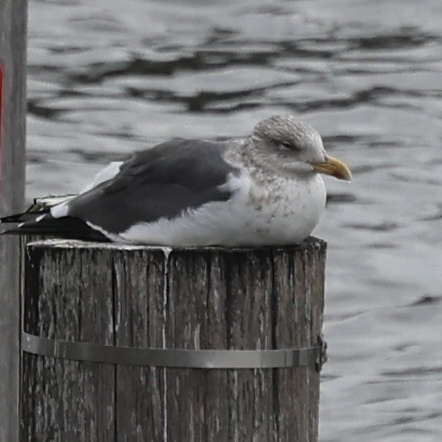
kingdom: Animalia
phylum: Chordata
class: Aves
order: Charadriiformes
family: Laridae
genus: Larus
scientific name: Larus fuscus
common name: Lesser black-backed gull
